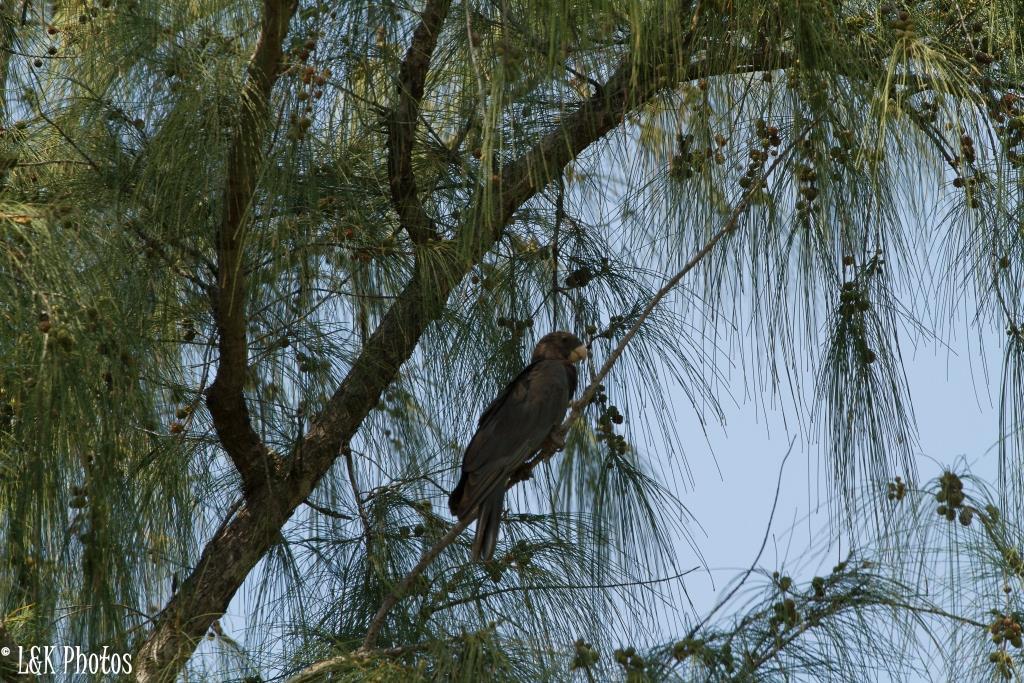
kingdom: Animalia
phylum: Chordata
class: Aves
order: Psittaciformes
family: Psittacidae
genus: Coracopsis
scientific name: Coracopsis vasa
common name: Greater vasa parrot
